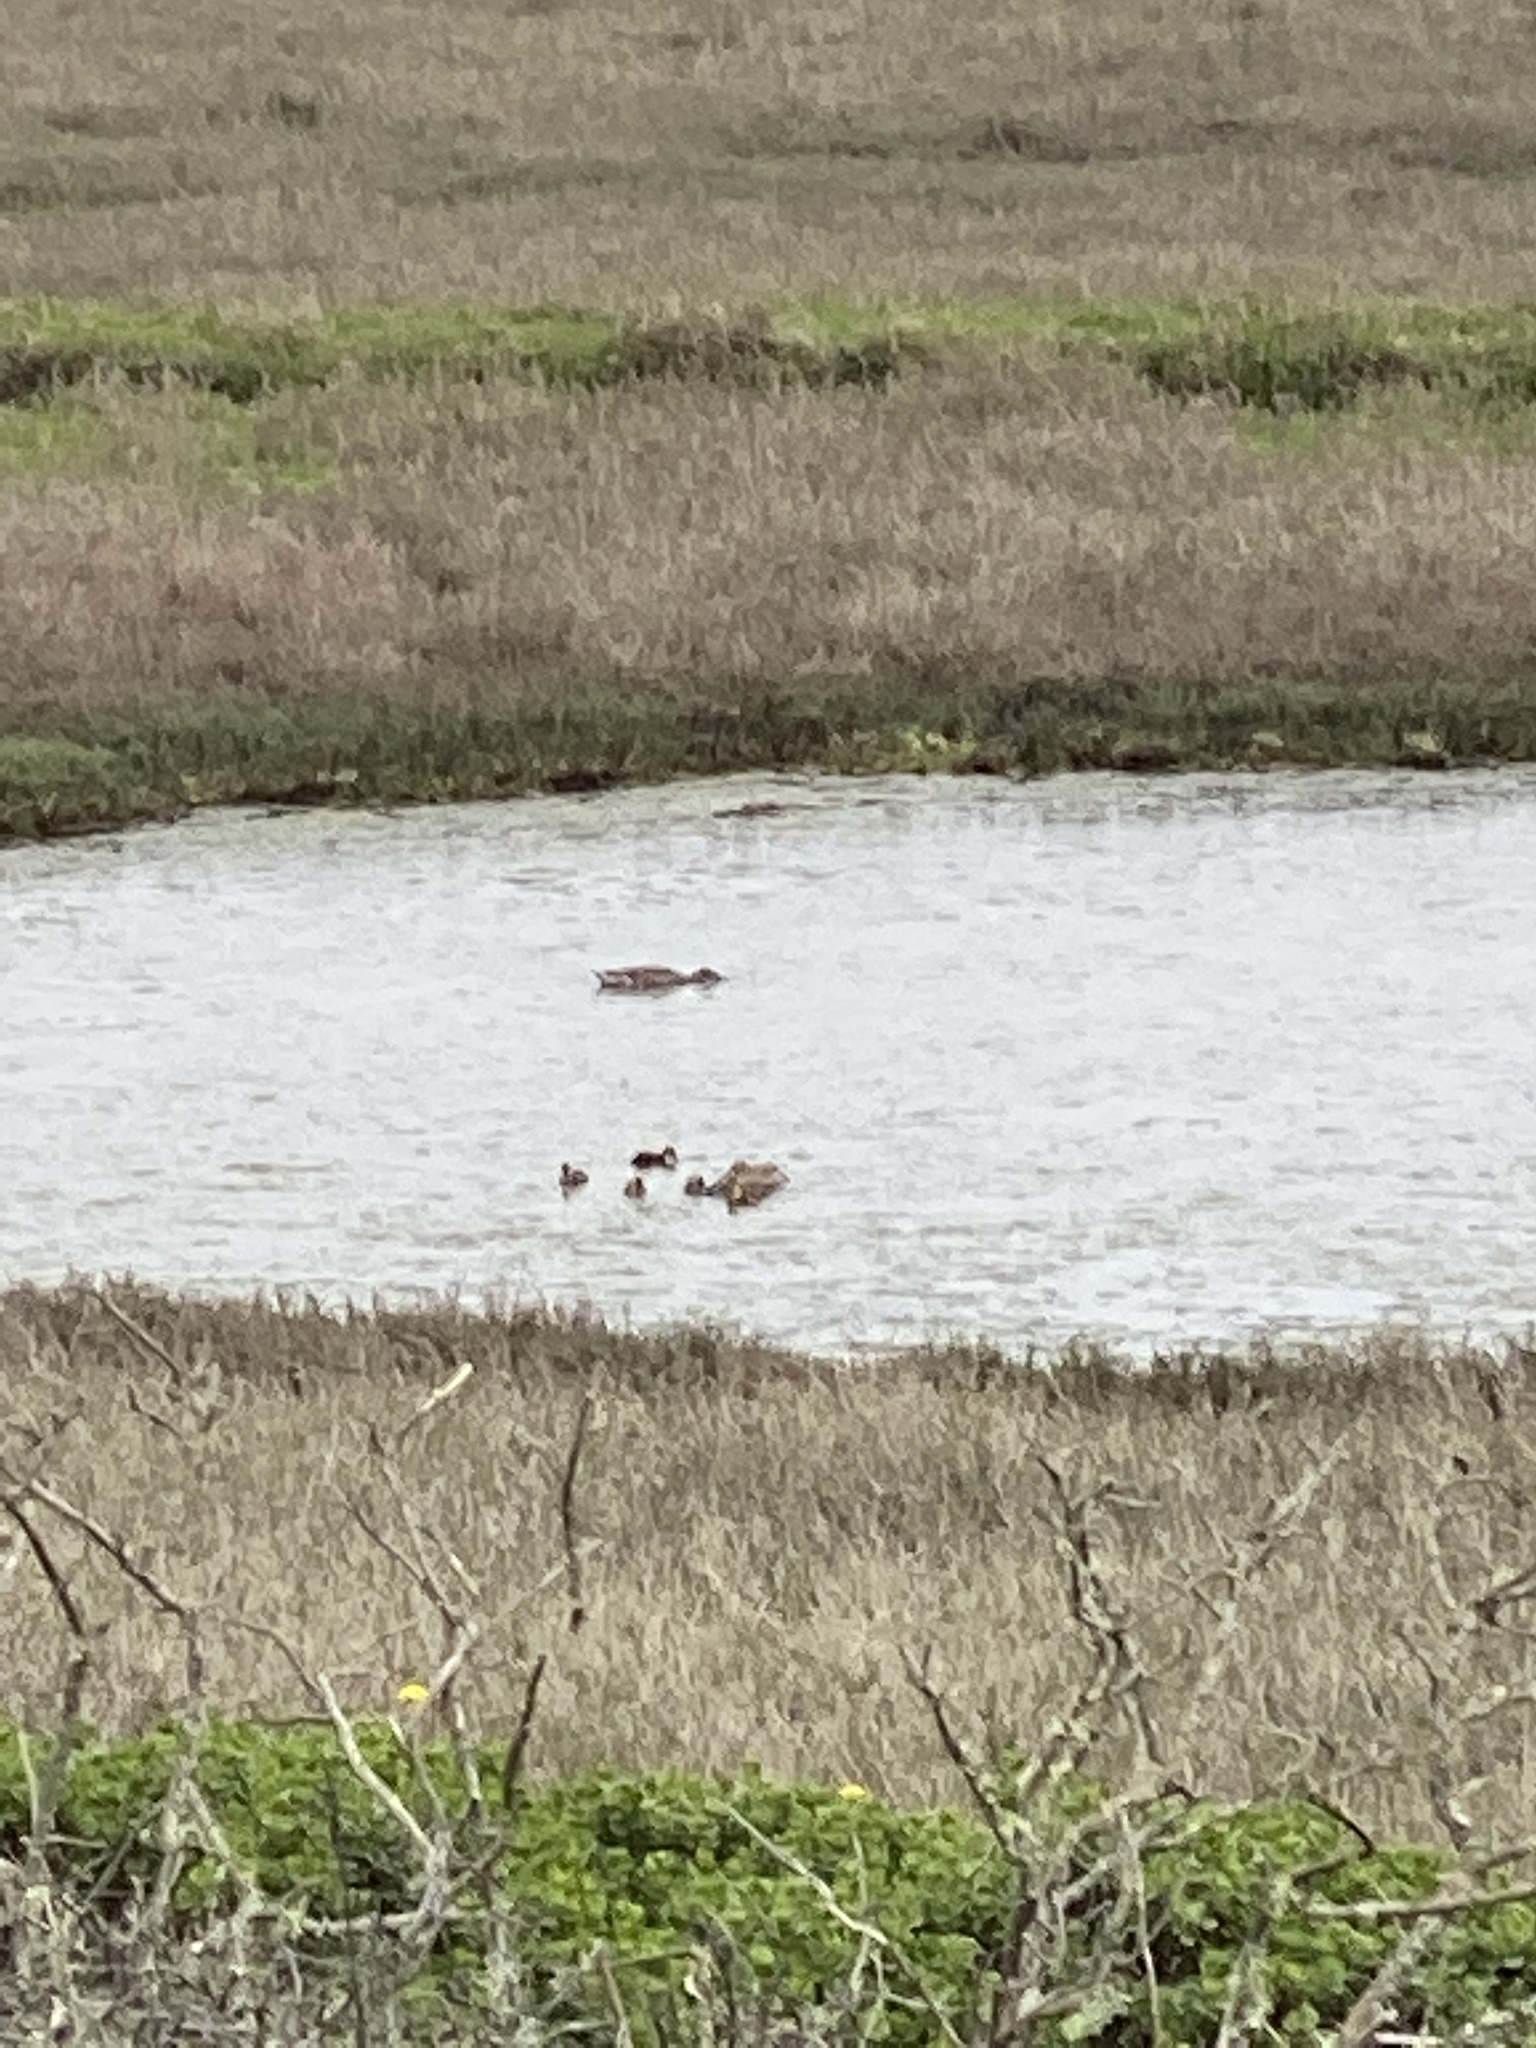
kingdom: Animalia
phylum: Chordata
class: Aves
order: Anseriformes
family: Anatidae
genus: Anas
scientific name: Anas platyrhynchos
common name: Mallard
